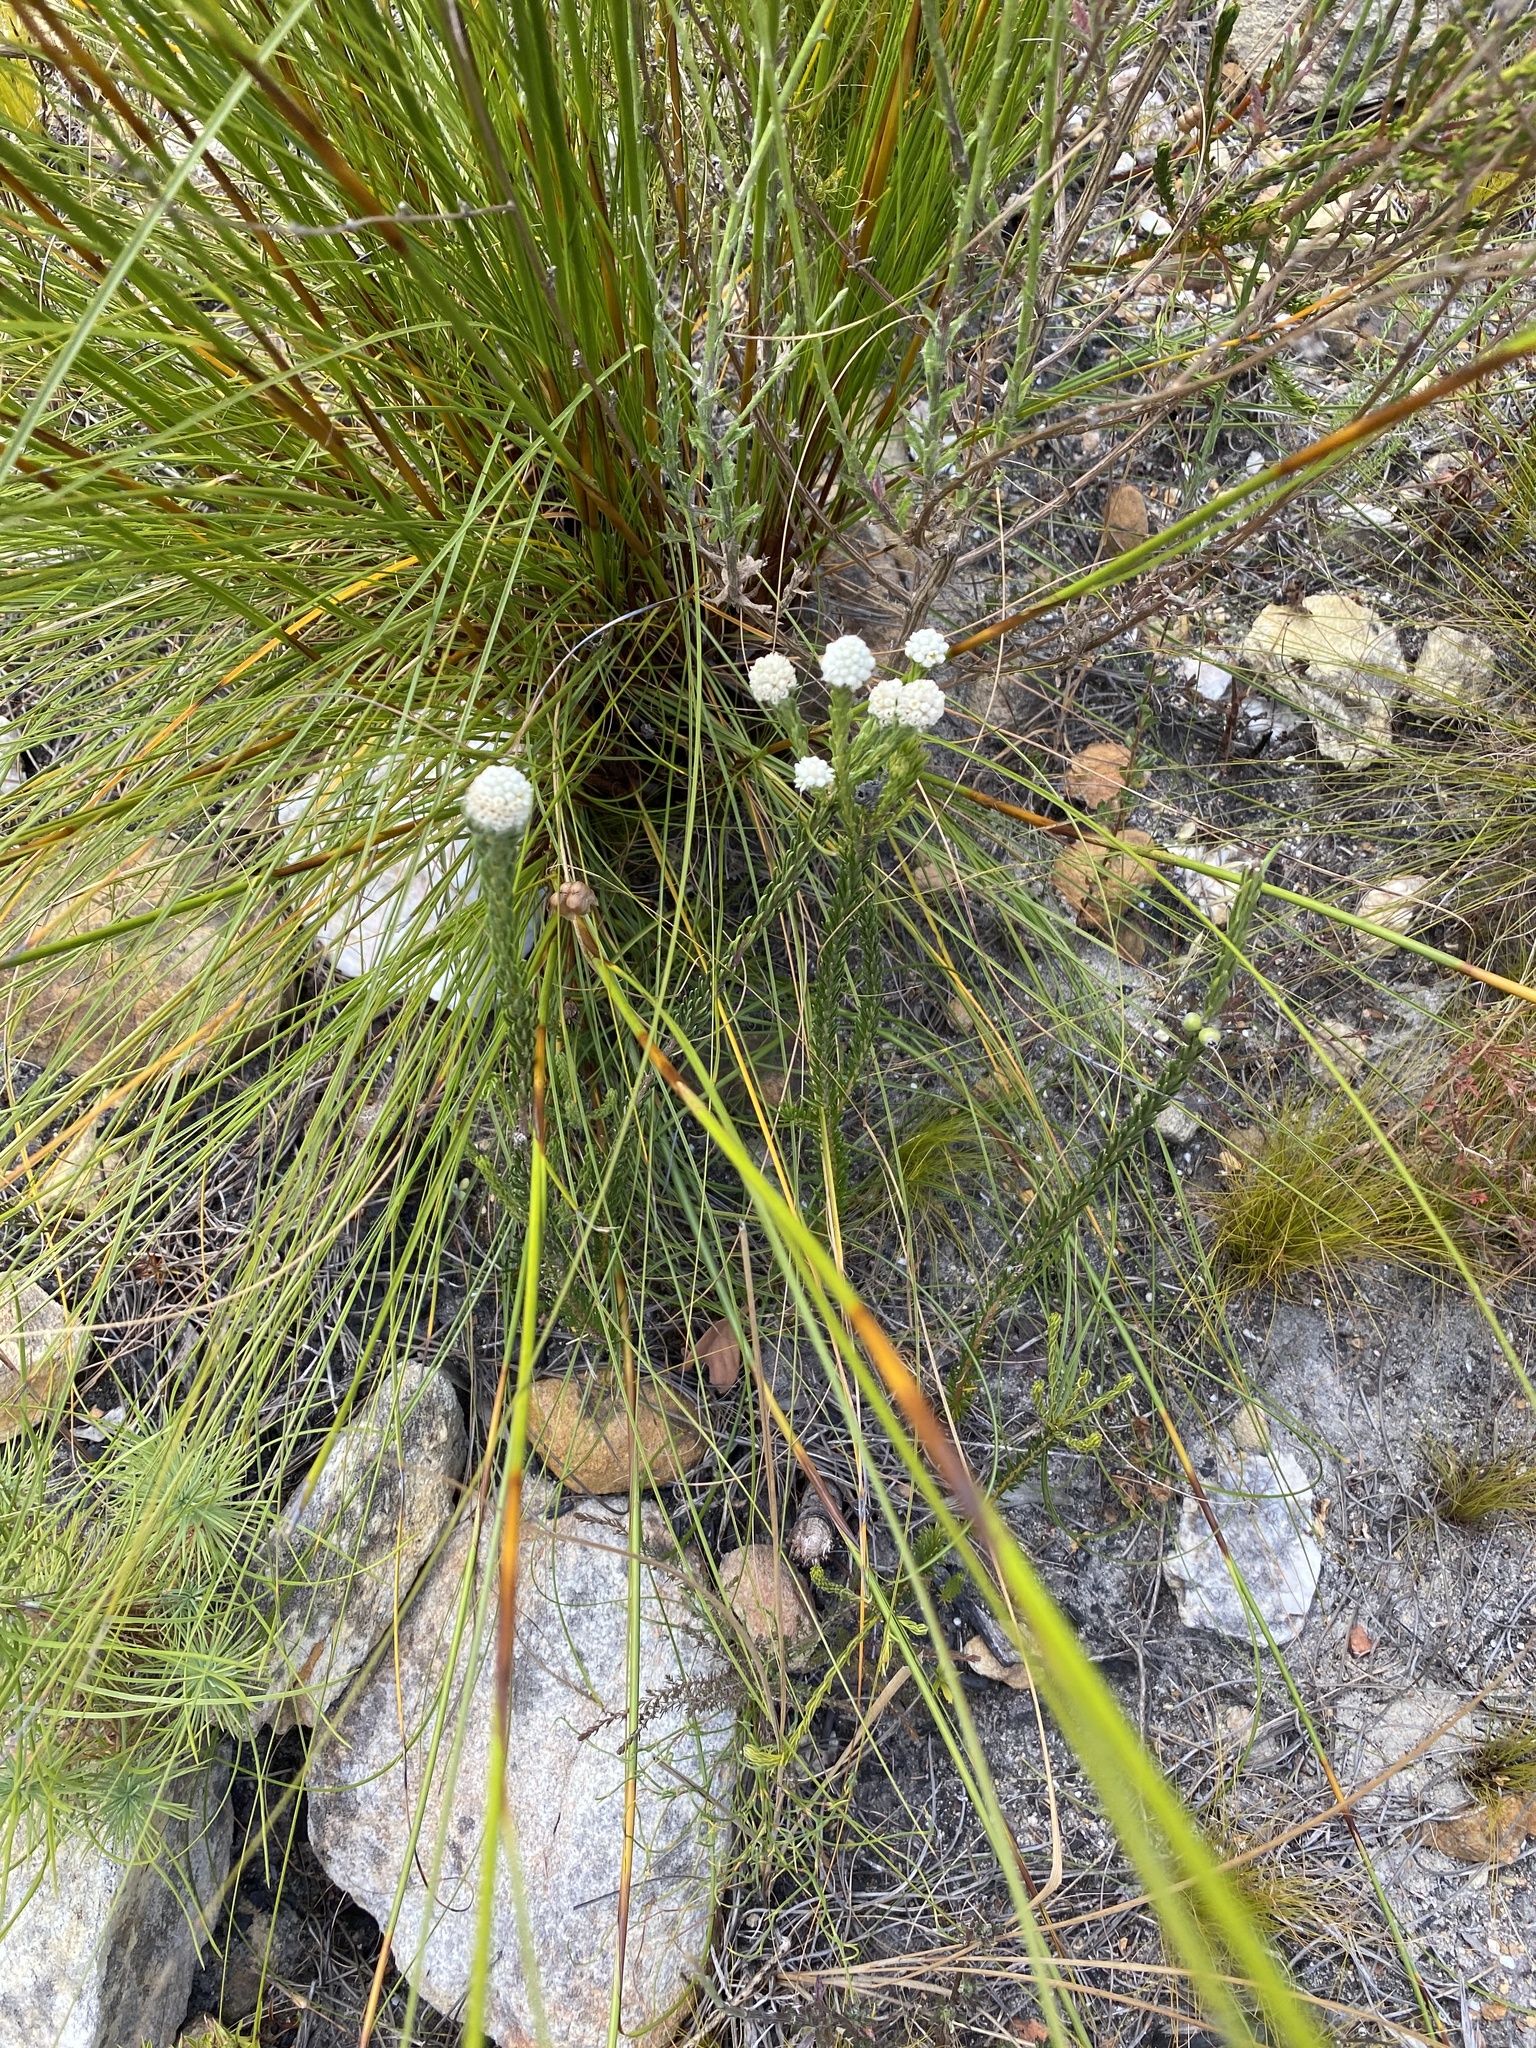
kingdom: Plantae
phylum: Tracheophyta
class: Magnoliopsida
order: Rosales
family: Rhamnaceae
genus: Phylica
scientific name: Phylica imberbis
